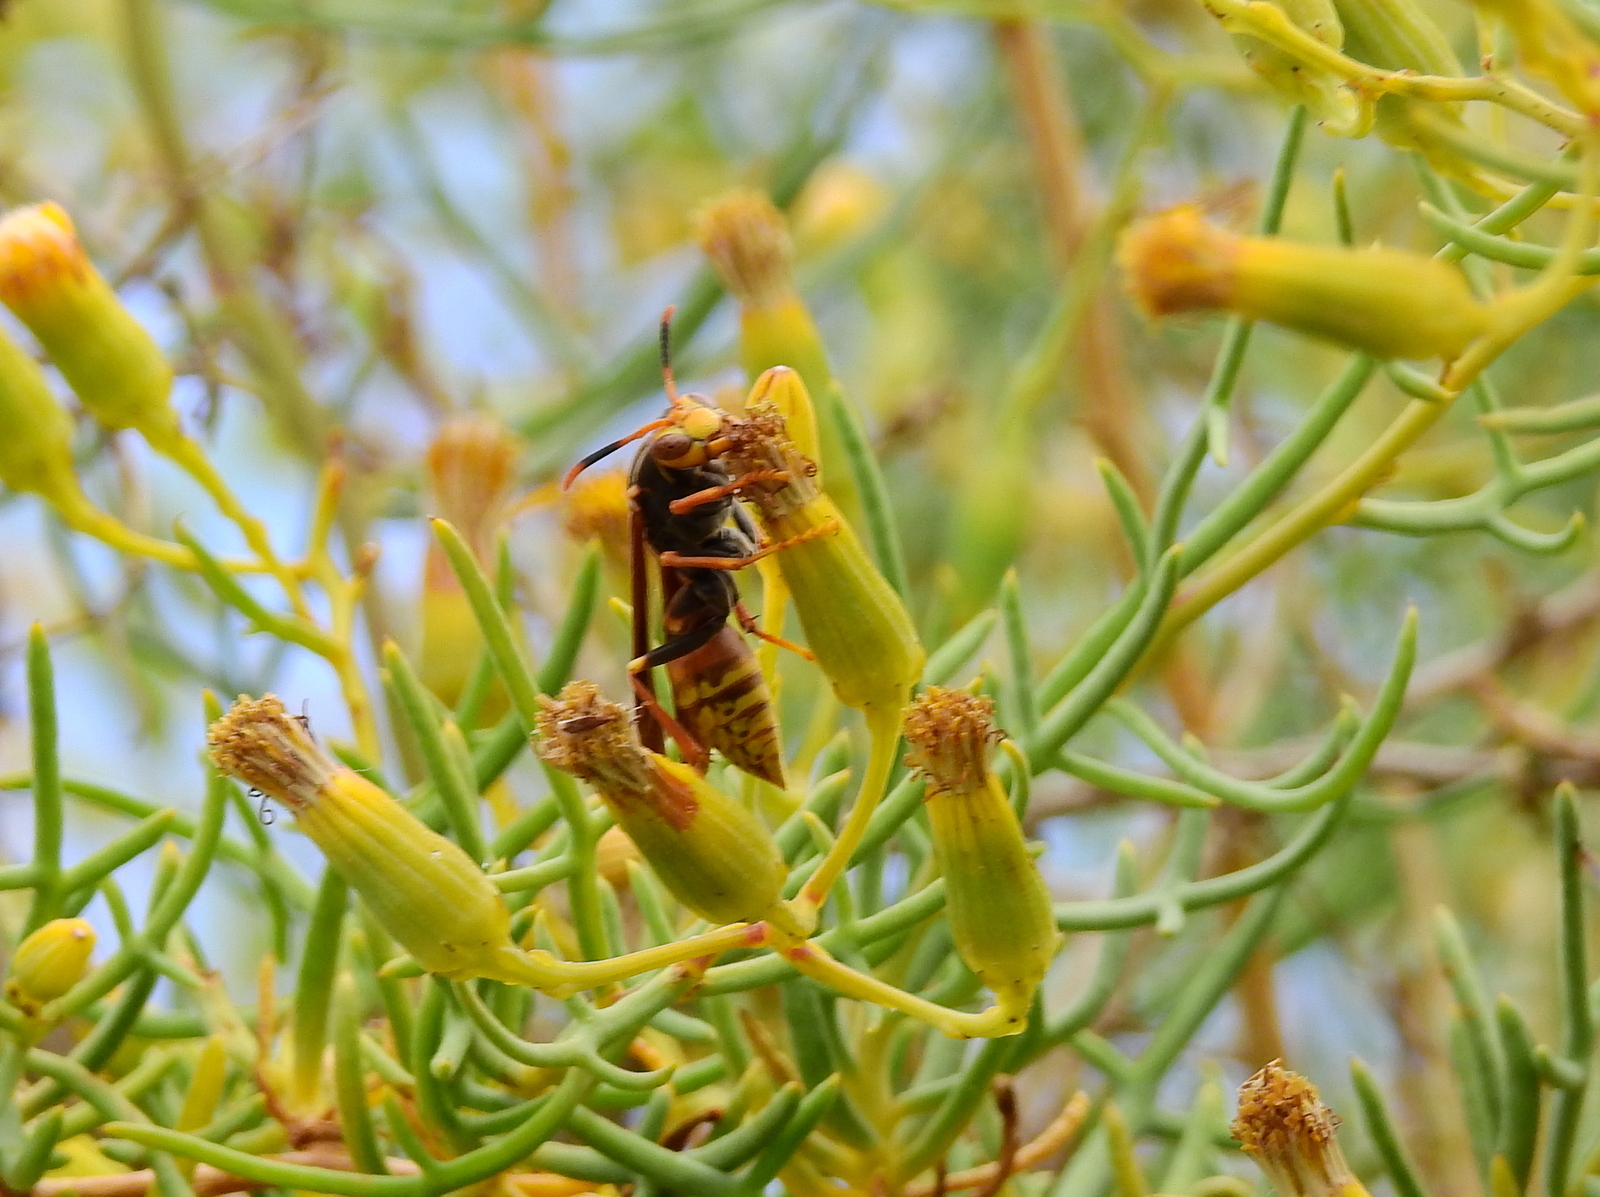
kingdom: Animalia
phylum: Arthropoda
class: Insecta
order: Hymenoptera
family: Eumenidae
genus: Polistes
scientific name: Polistes buyssoni
